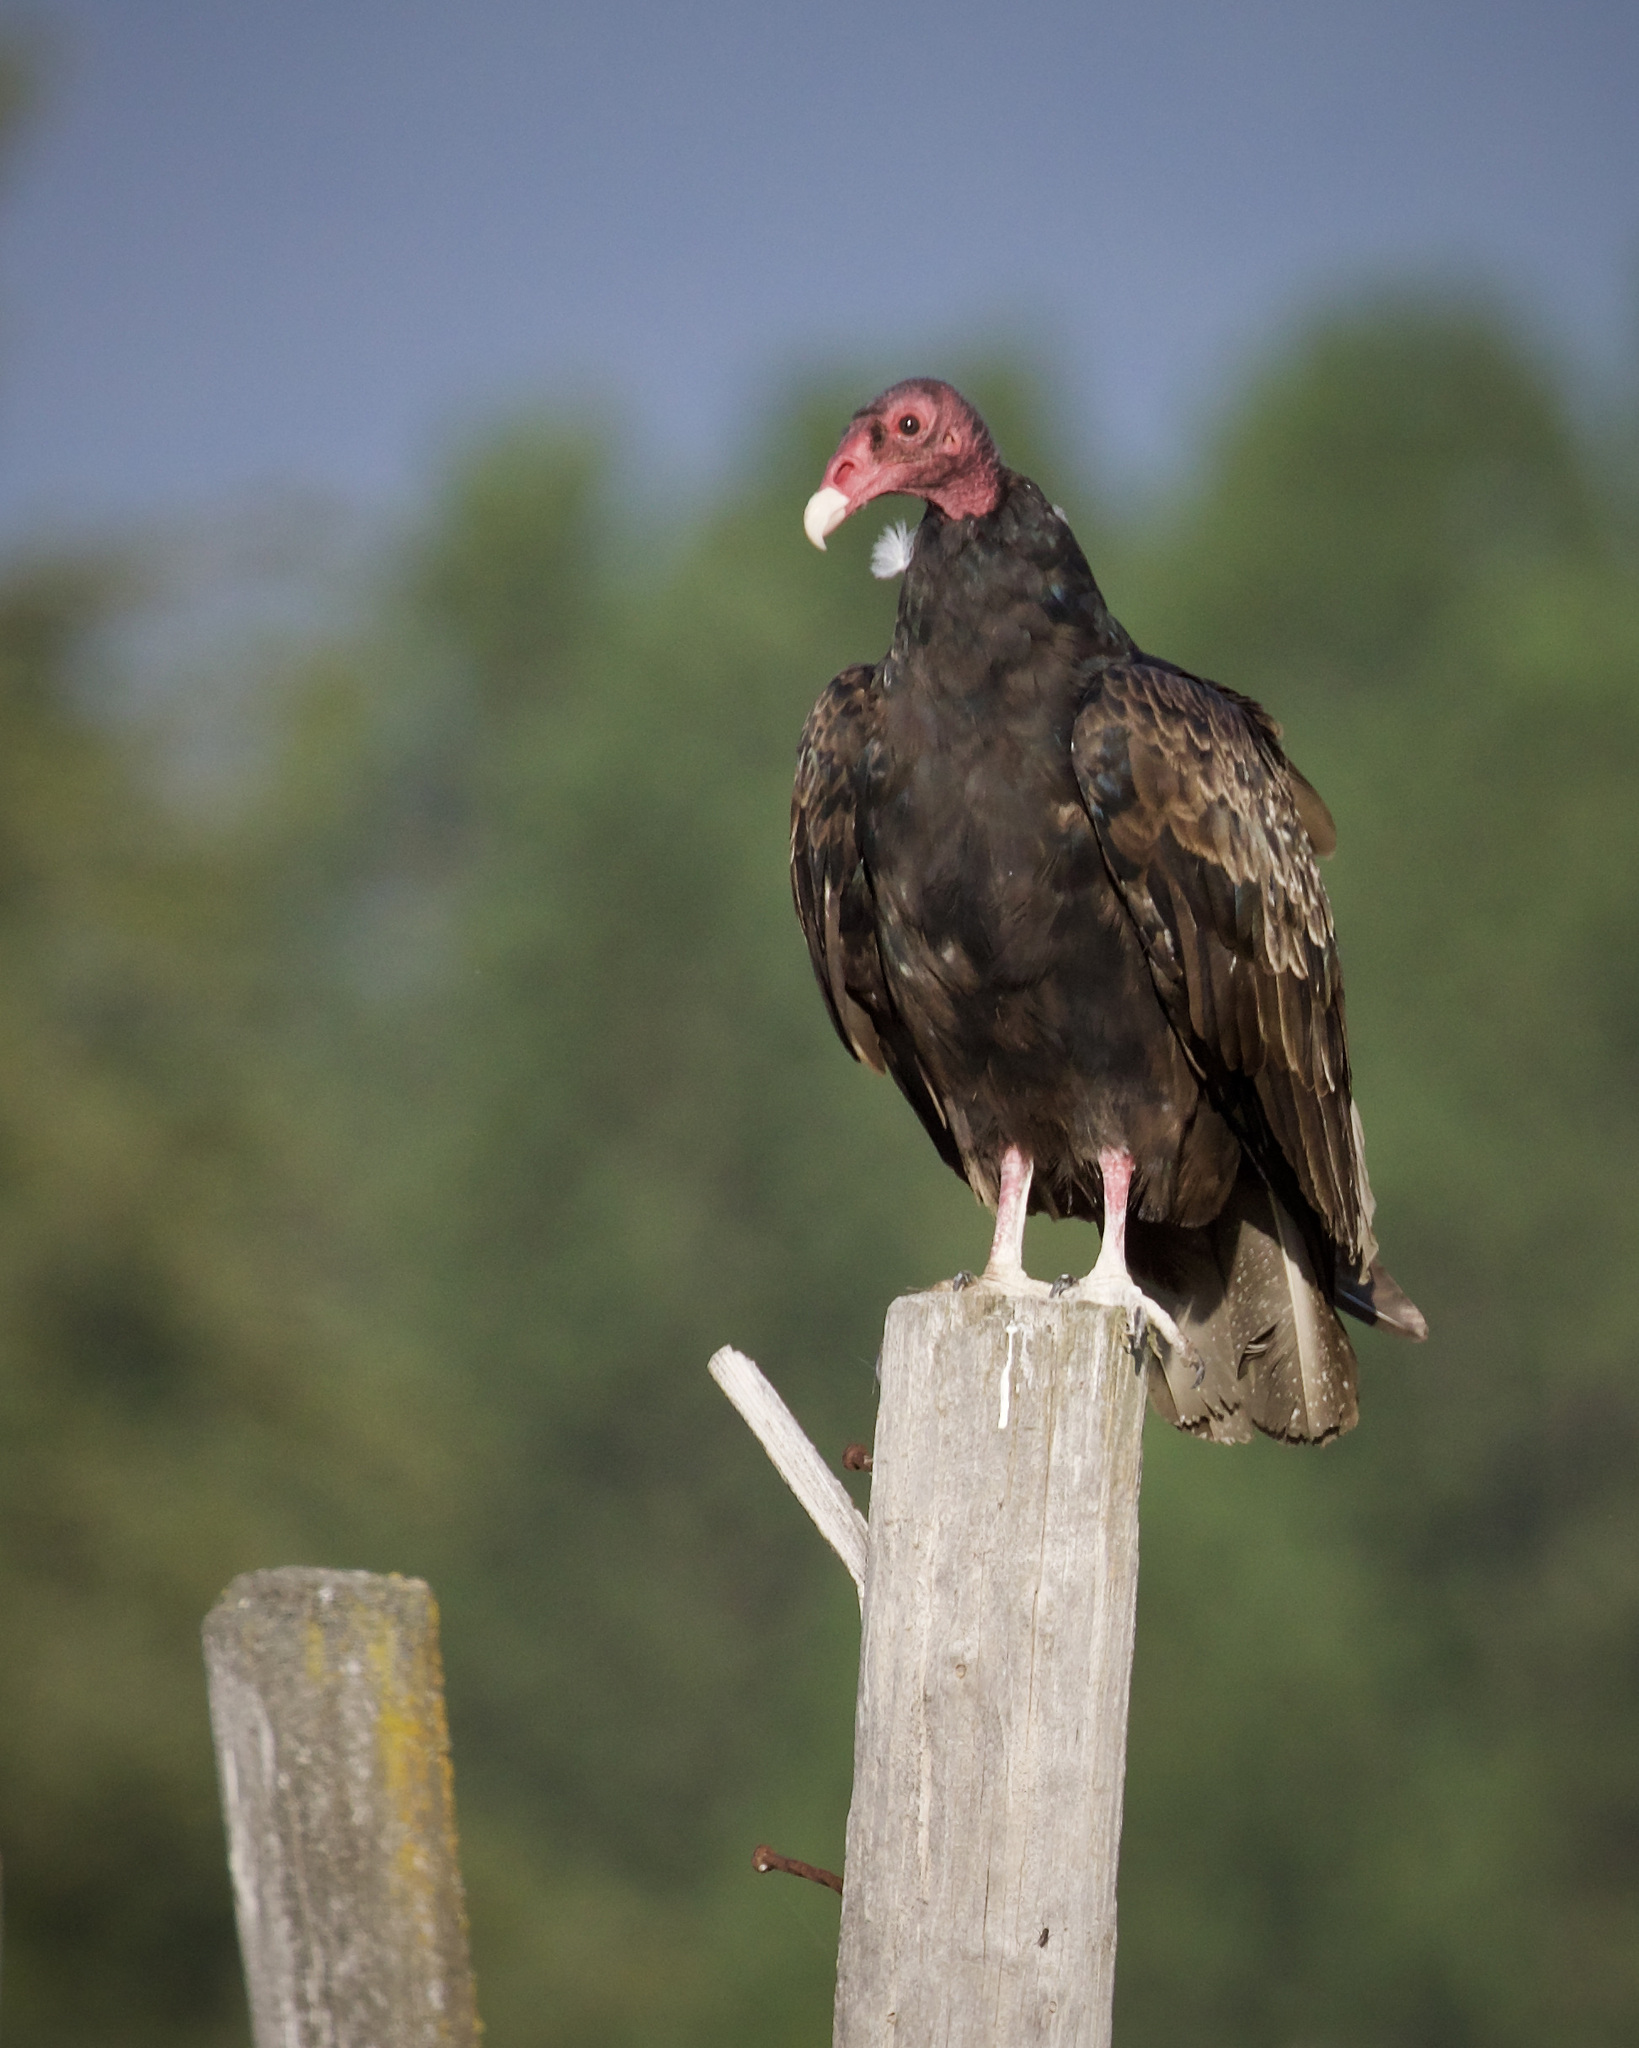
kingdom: Animalia
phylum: Chordata
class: Aves
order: Accipitriformes
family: Cathartidae
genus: Cathartes
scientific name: Cathartes aura
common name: Turkey vulture
